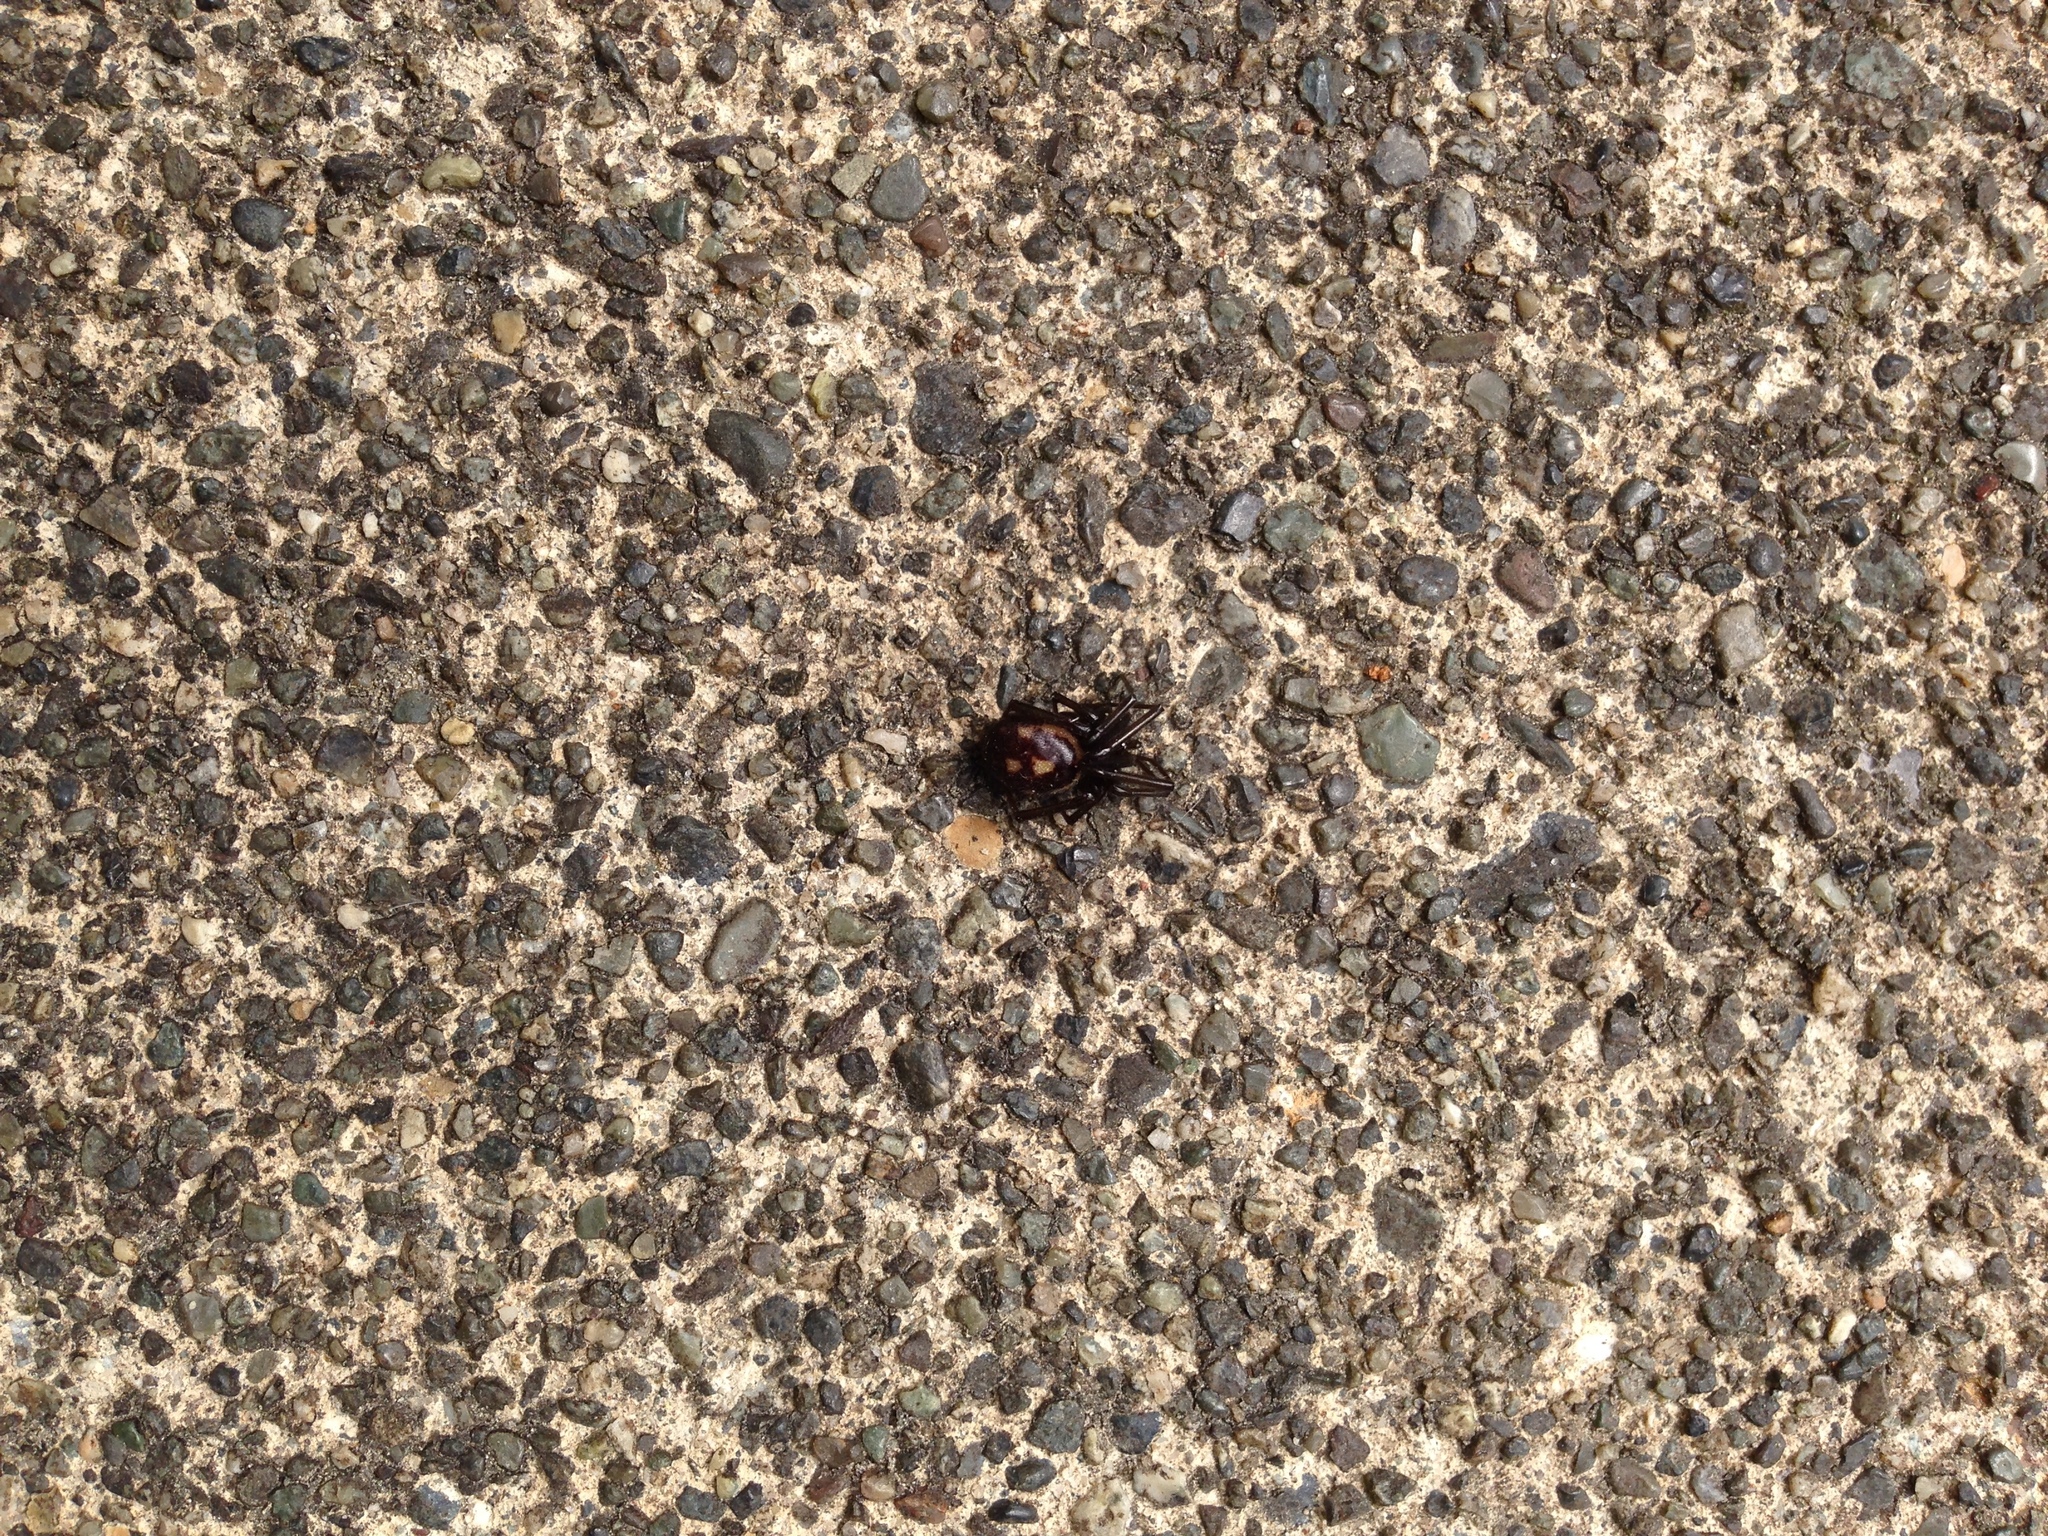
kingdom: Animalia
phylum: Arthropoda
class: Arachnida
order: Araneae
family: Theridiidae
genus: Steatoda
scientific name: Steatoda grossa
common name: False black widow
